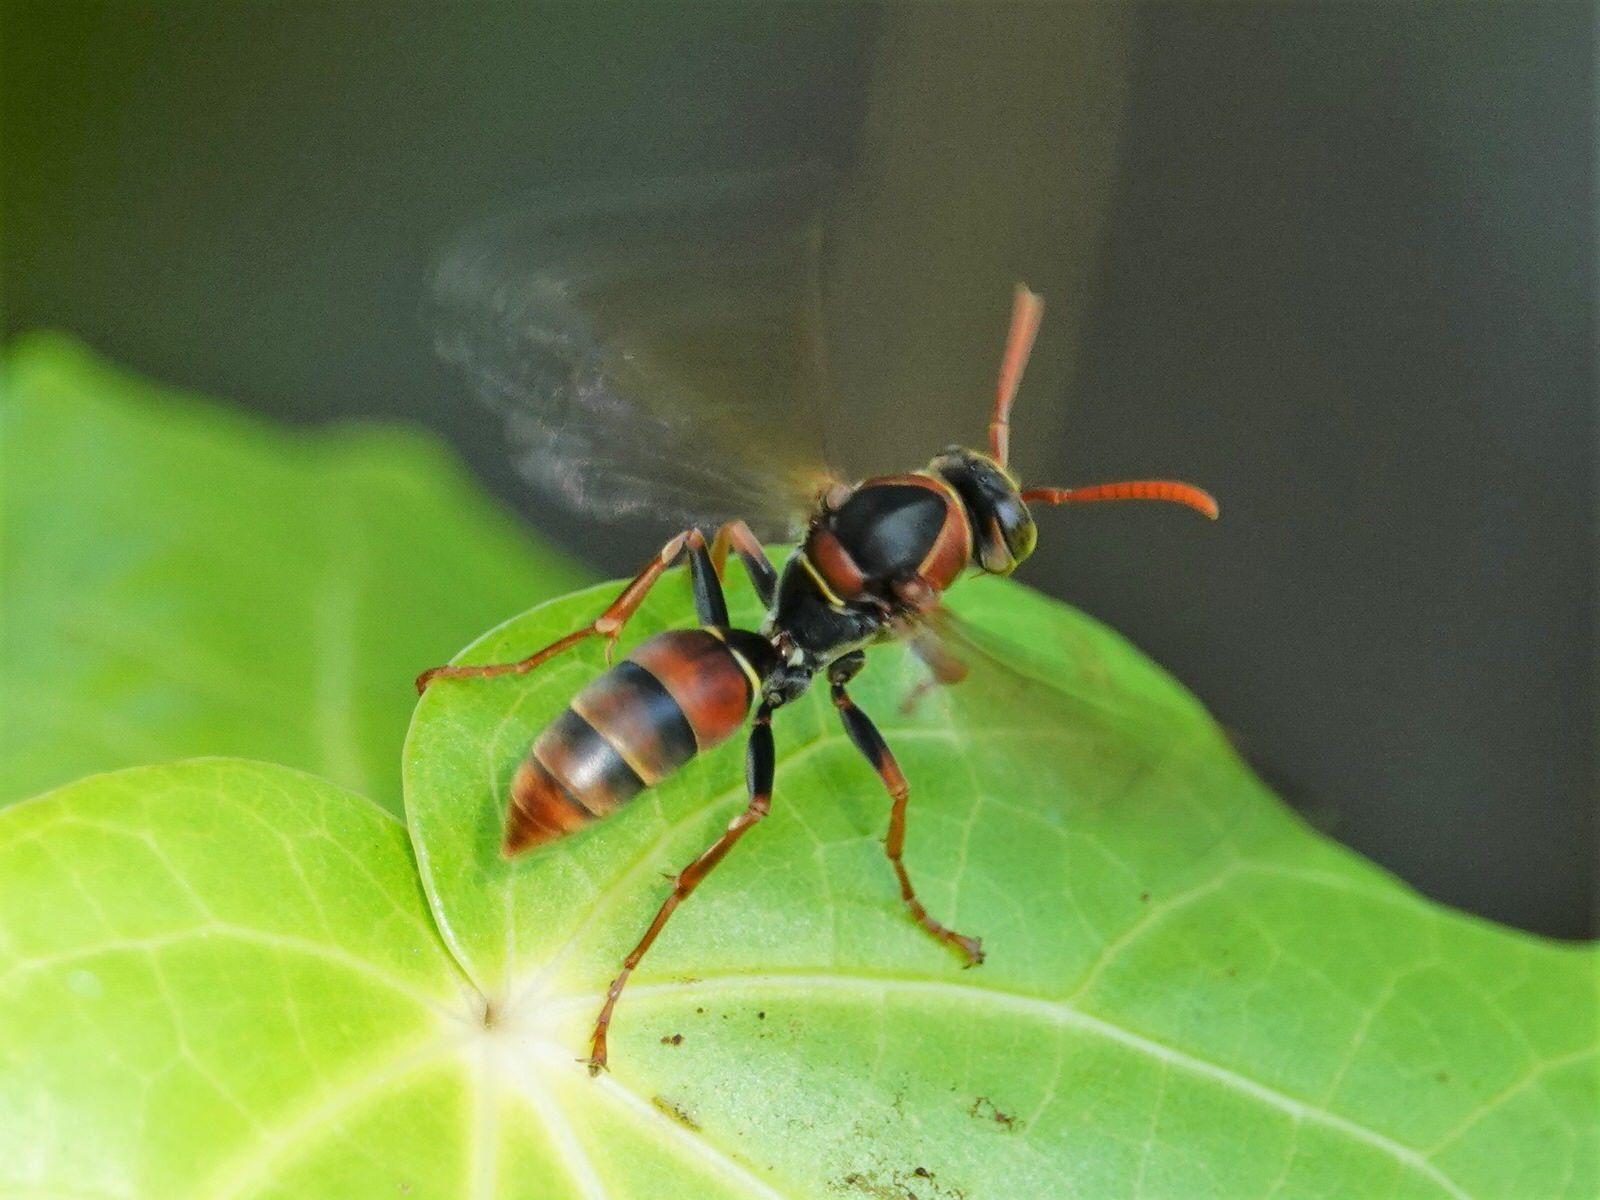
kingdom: Animalia
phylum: Arthropoda
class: Insecta
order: Hymenoptera
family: Eumenidae
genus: Polistes
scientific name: Polistes humilis
